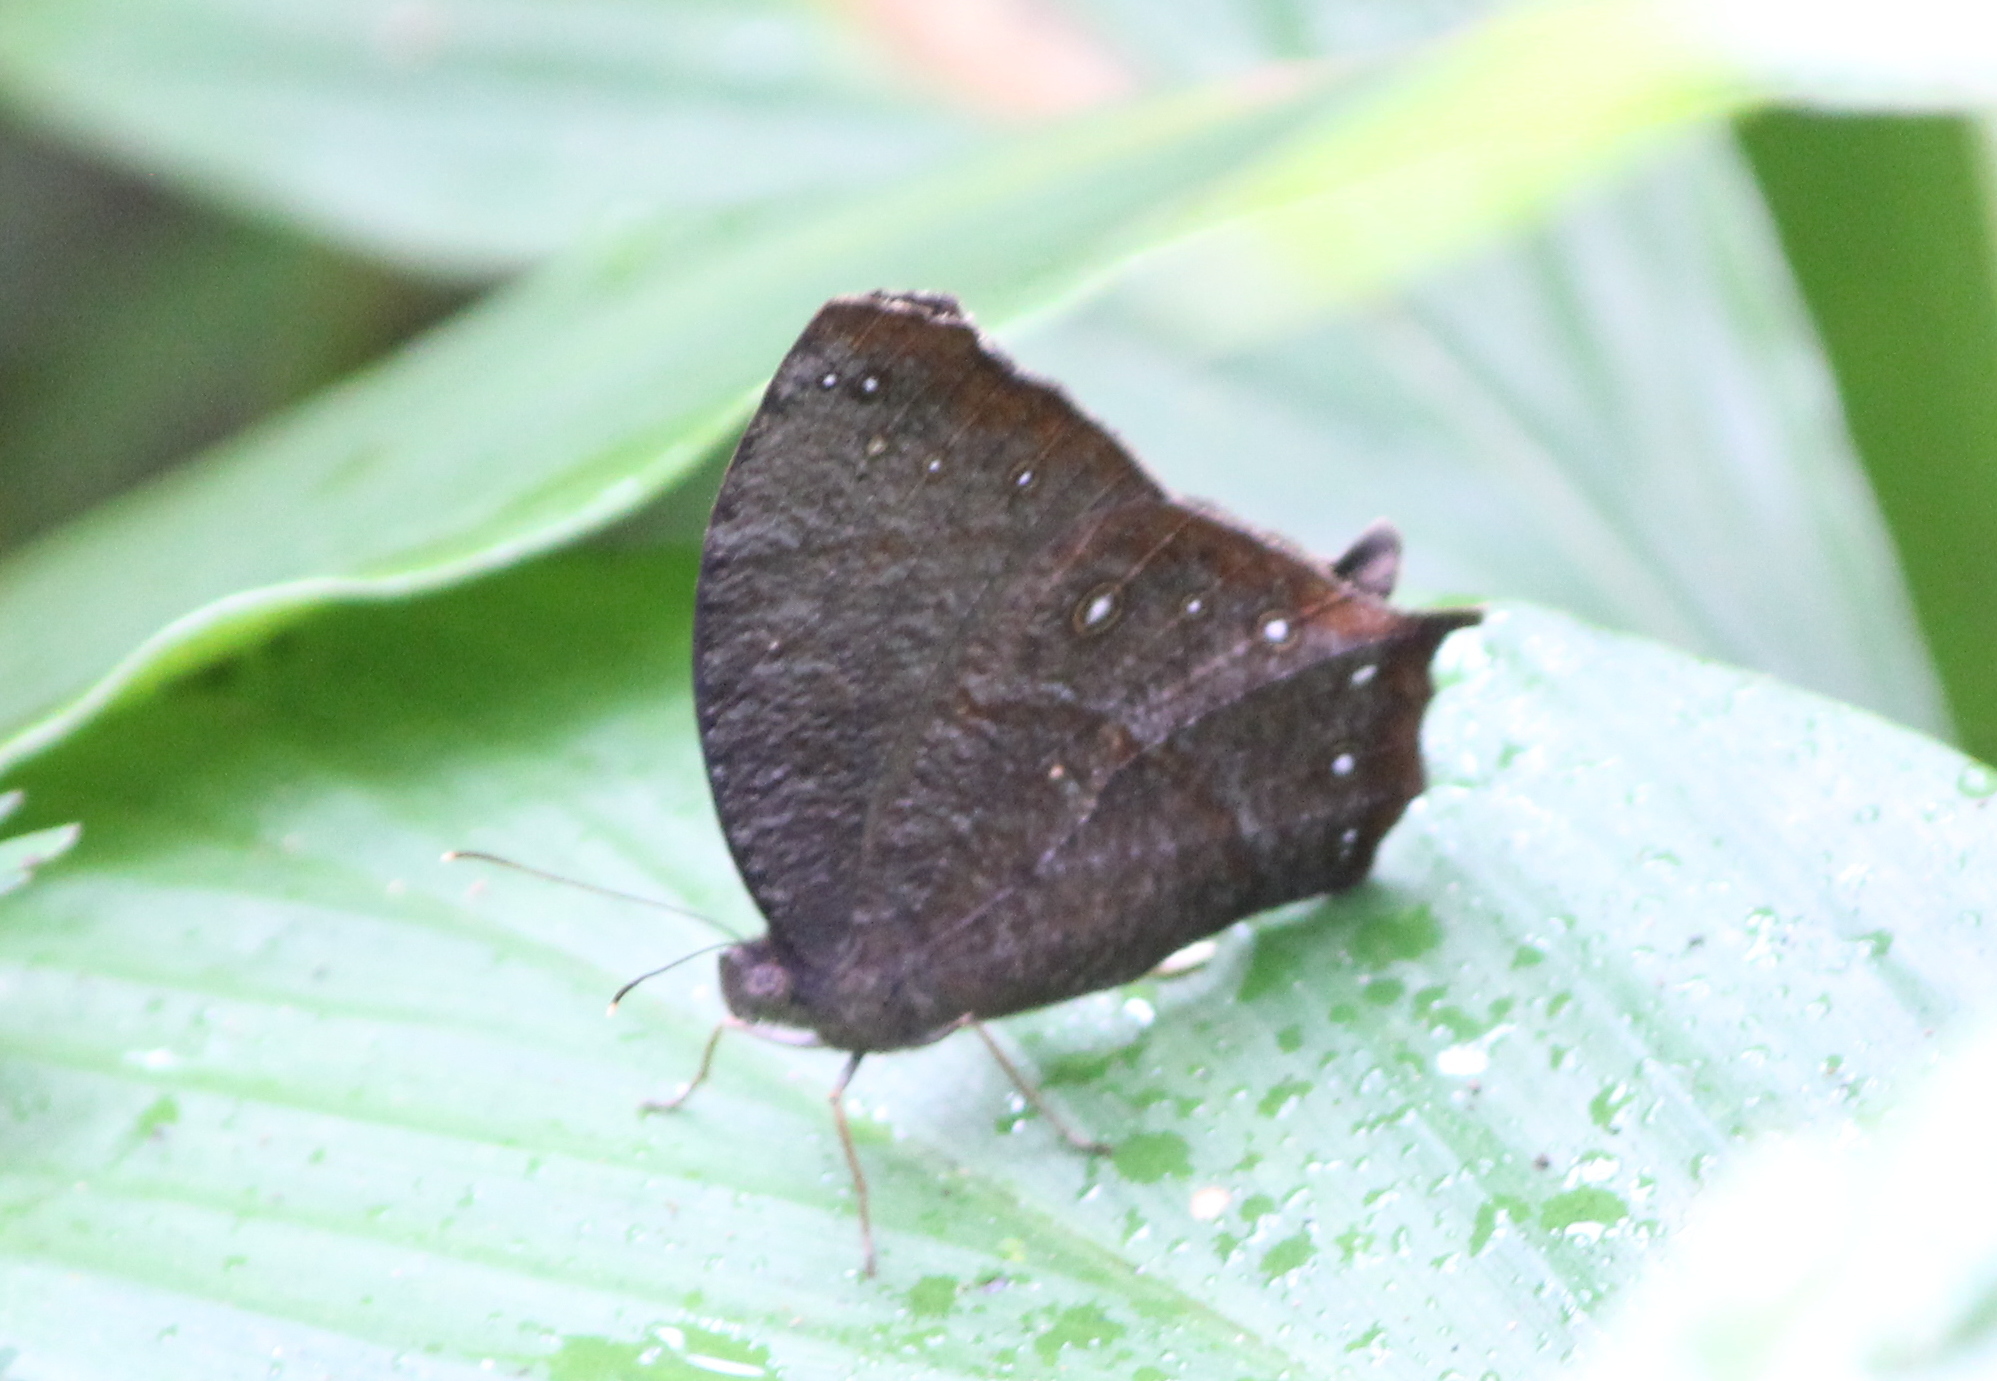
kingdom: Animalia
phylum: Arthropoda
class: Insecta
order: Lepidoptera
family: Nymphalidae
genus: Melanitis
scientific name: Melanitis phedima
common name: Dark evening brown
